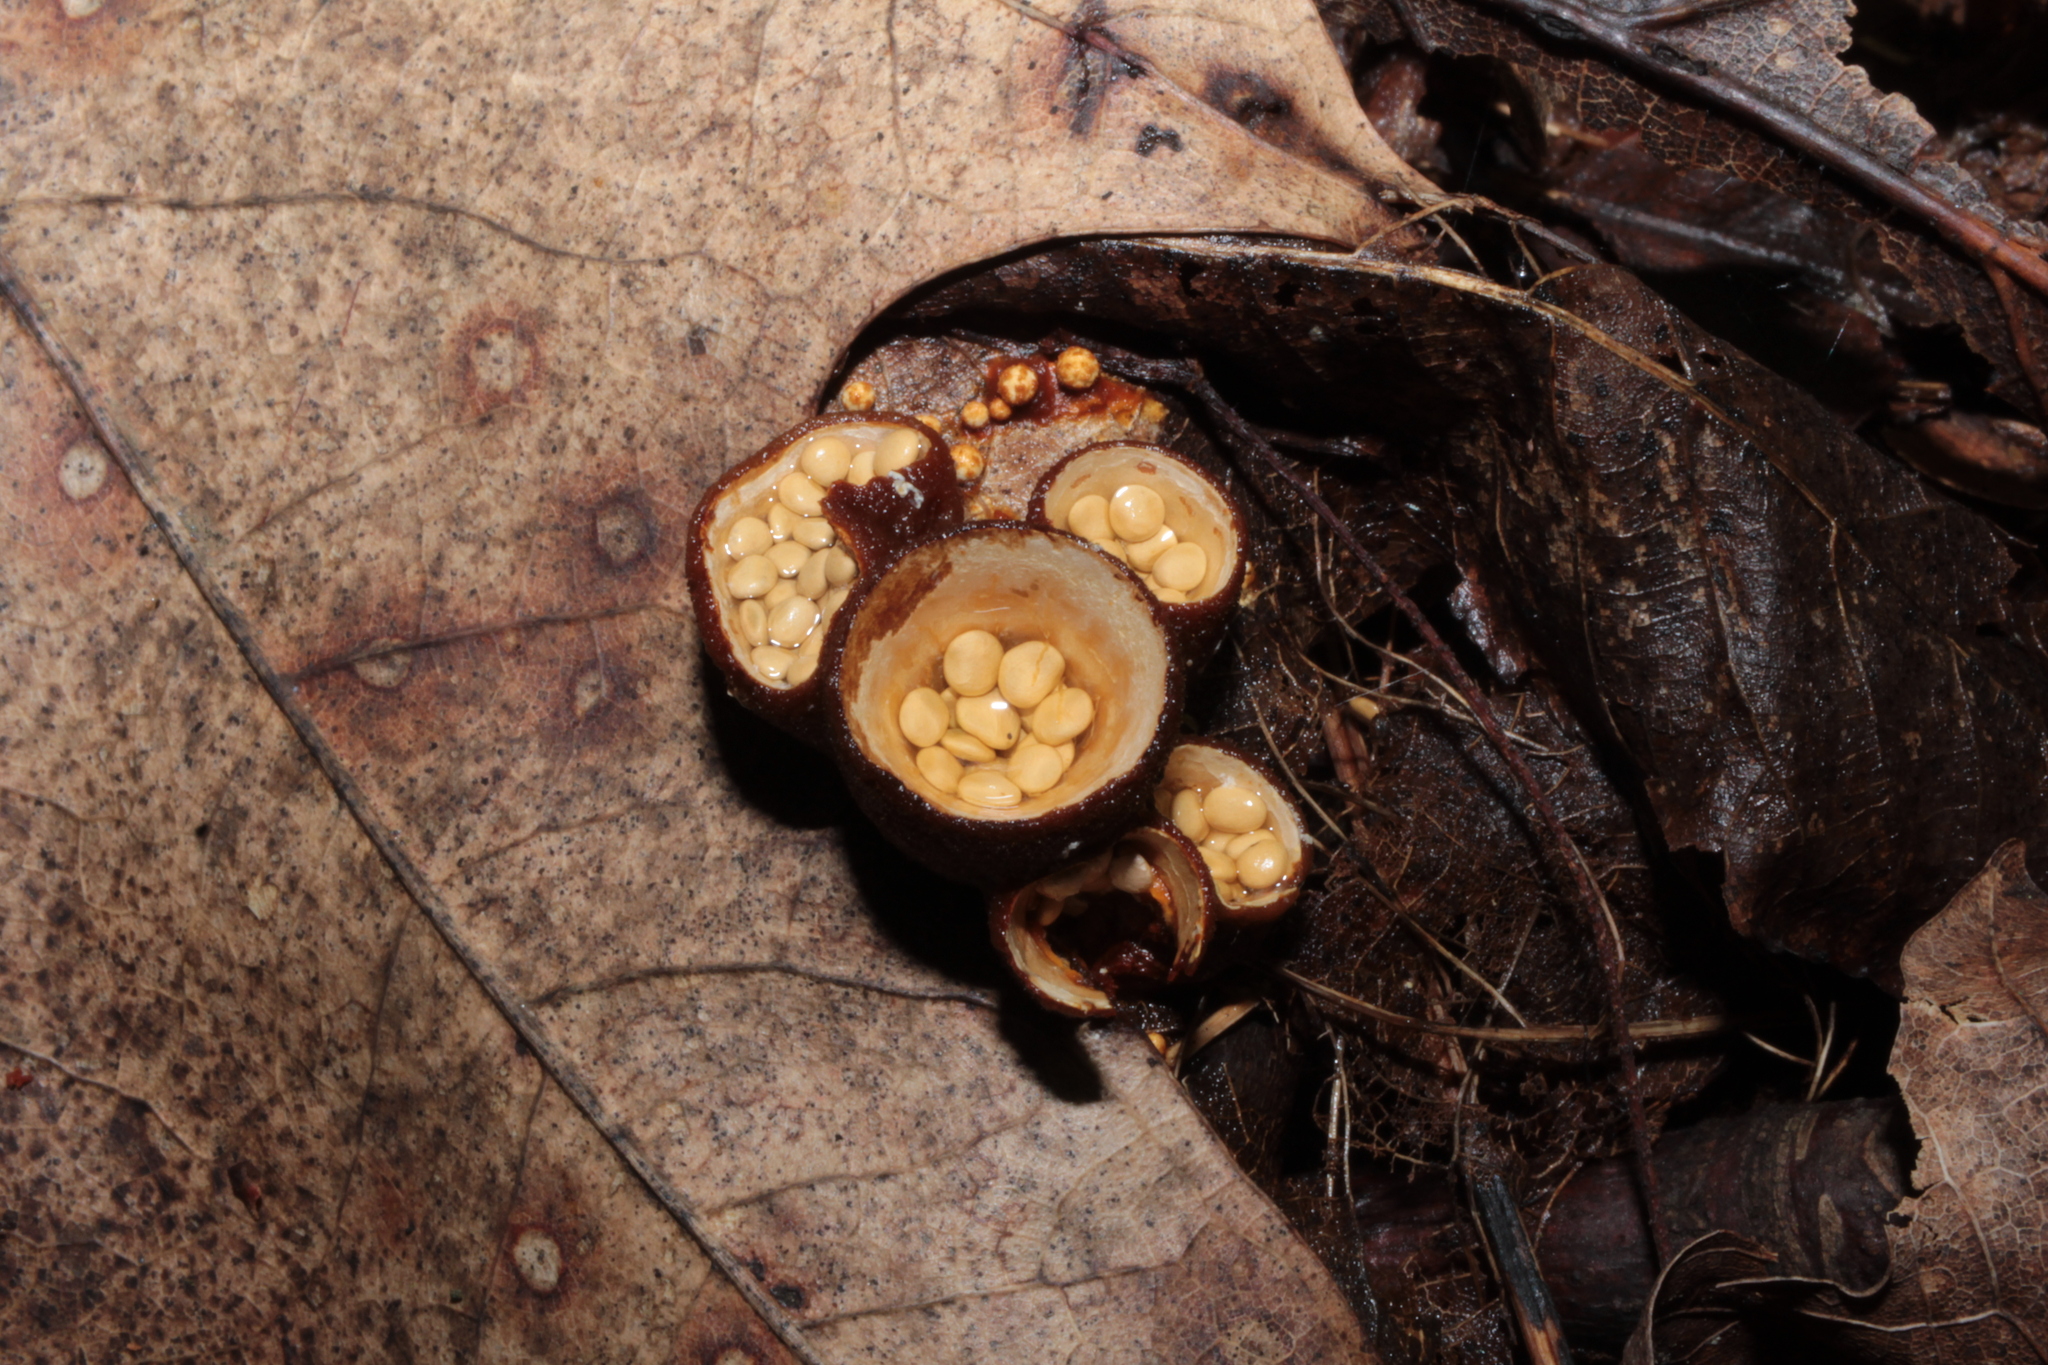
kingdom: Fungi
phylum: Basidiomycota
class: Agaricomycetes
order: Agaricales
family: Nidulariaceae
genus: Crucibulum
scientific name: Crucibulum parvulum
